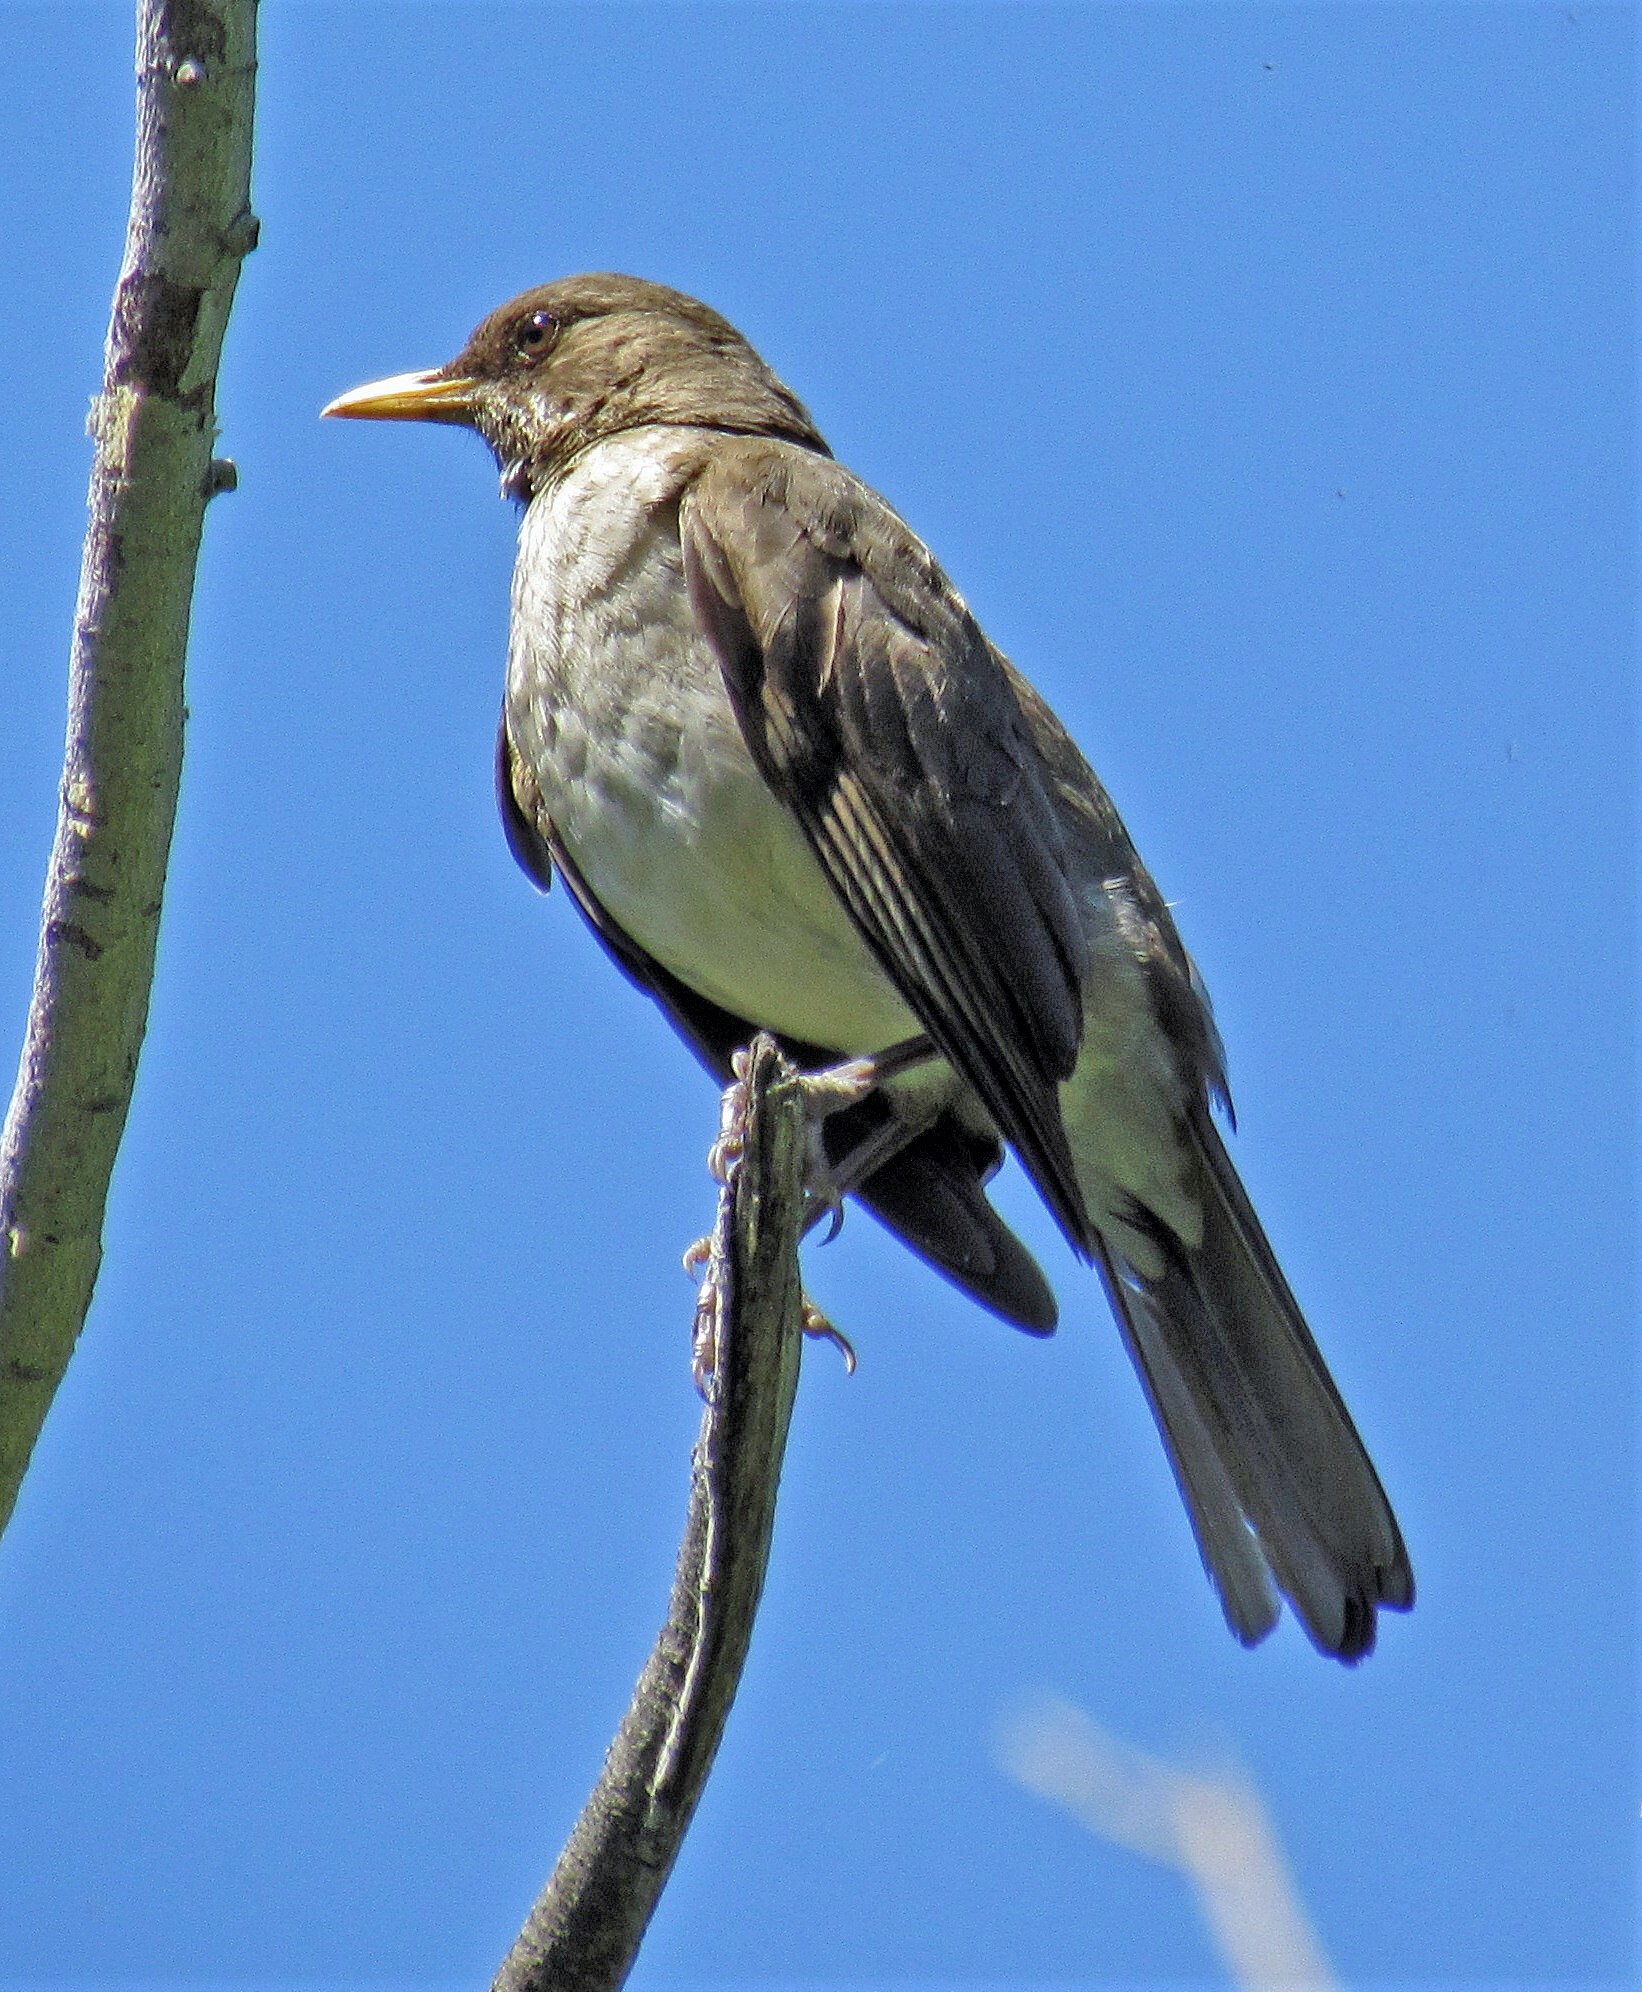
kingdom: Animalia
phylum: Chordata
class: Aves
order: Passeriformes
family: Turdidae
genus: Turdus
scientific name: Turdus amaurochalinus
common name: Creamy-bellied thrush
